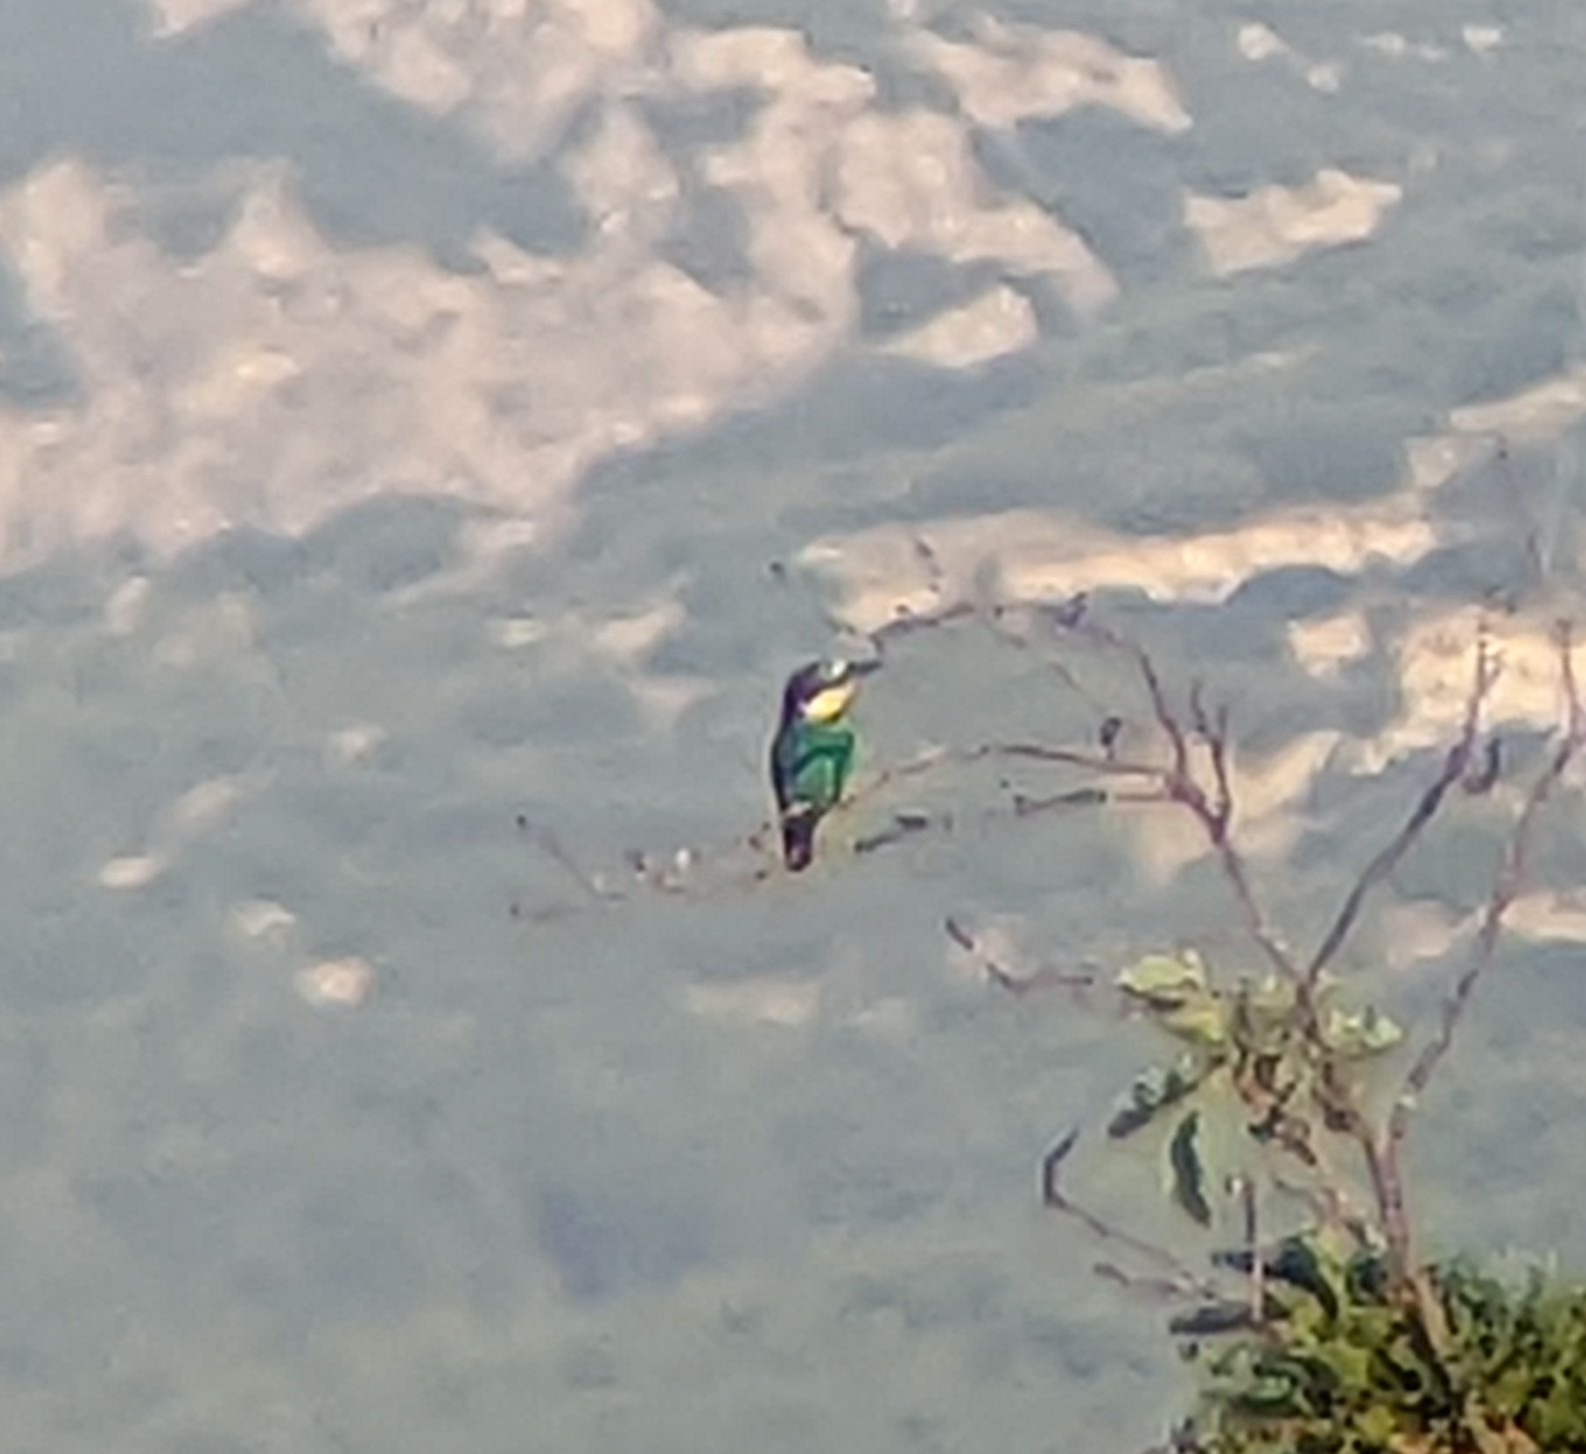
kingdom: Animalia
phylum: Chordata
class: Aves
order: Coraciiformes
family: Meropidae
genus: Merops
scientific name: Merops apiaster
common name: European bee-eater
